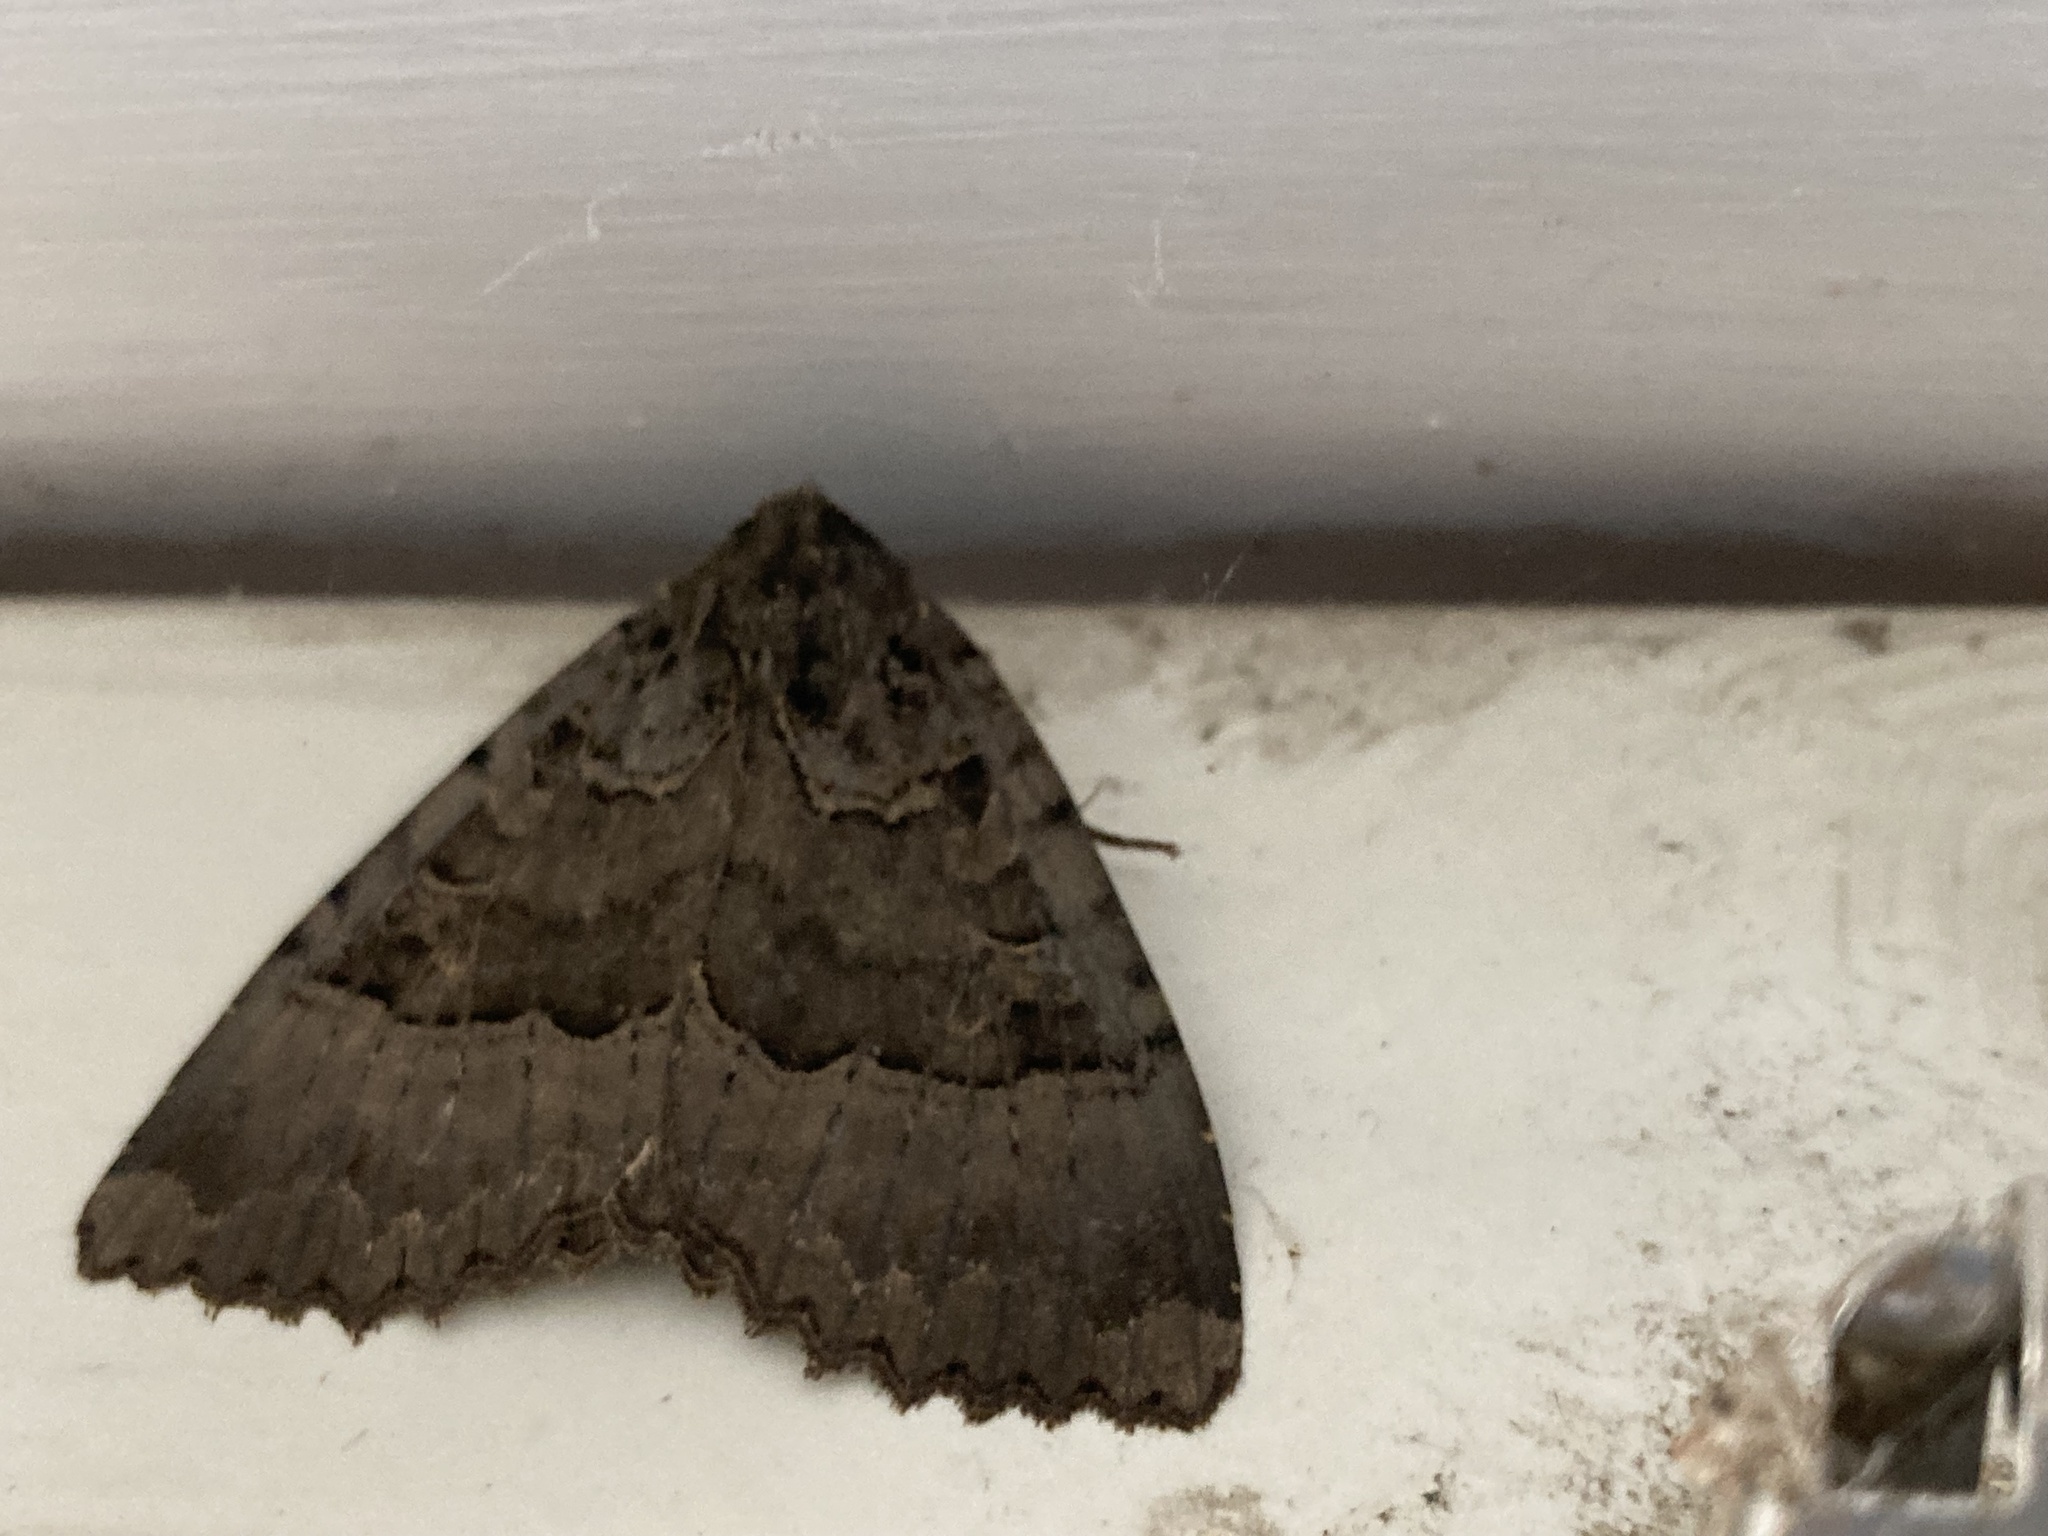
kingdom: Animalia
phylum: Arthropoda
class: Insecta
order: Lepidoptera
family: Noctuidae
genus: Mormo
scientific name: Mormo maura
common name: Old lady
